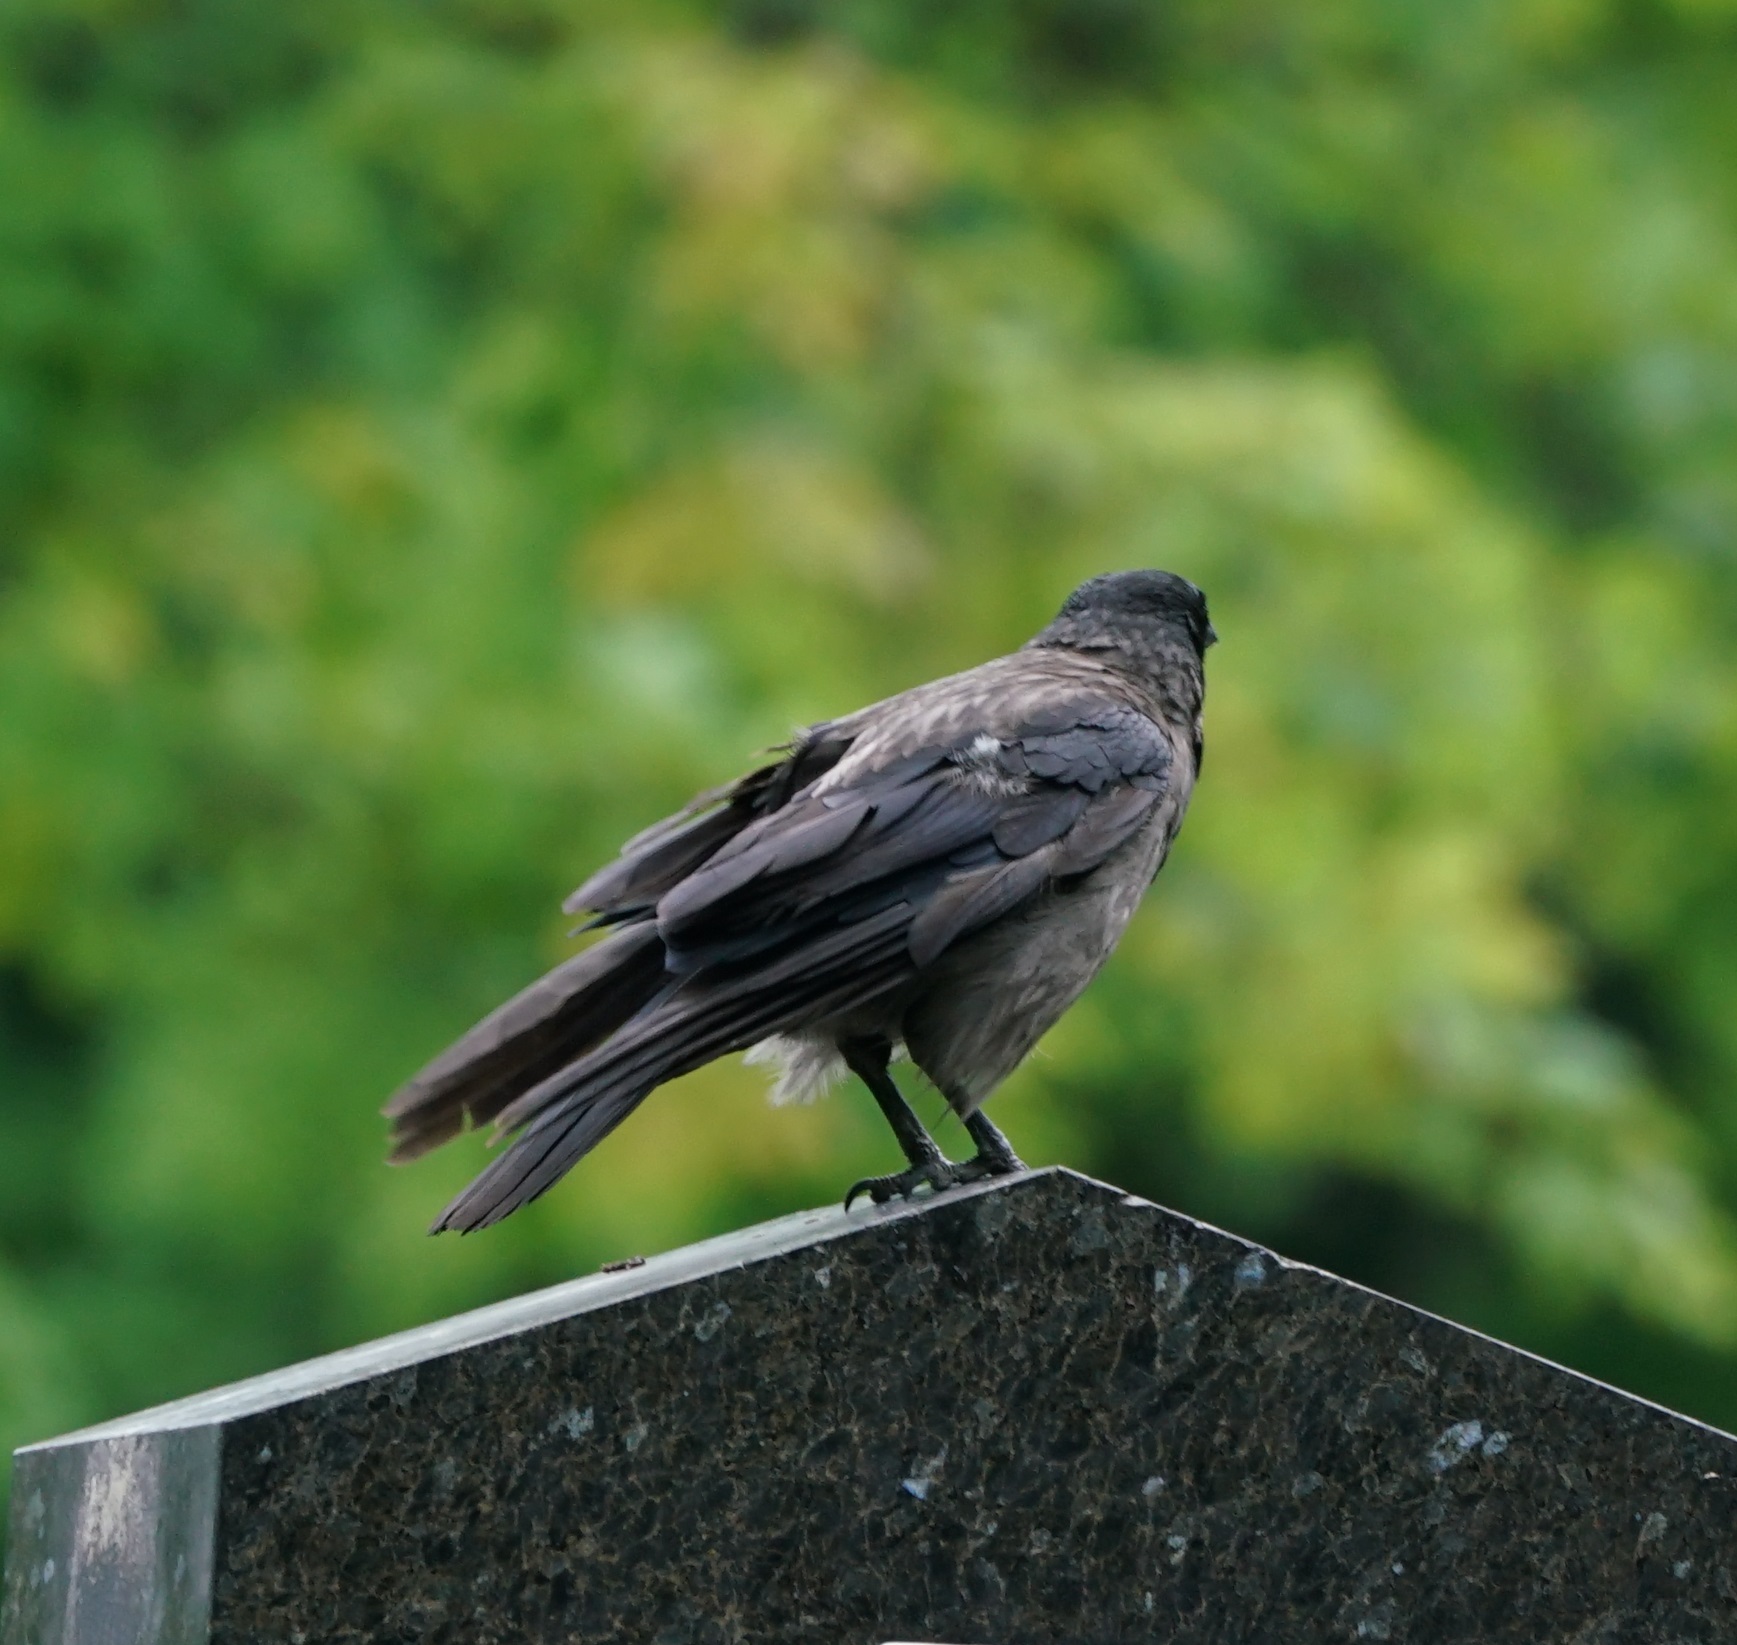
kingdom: Animalia
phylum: Chordata
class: Aves
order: Passeriformes
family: Corvidae
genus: Corvus
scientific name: Corvus
